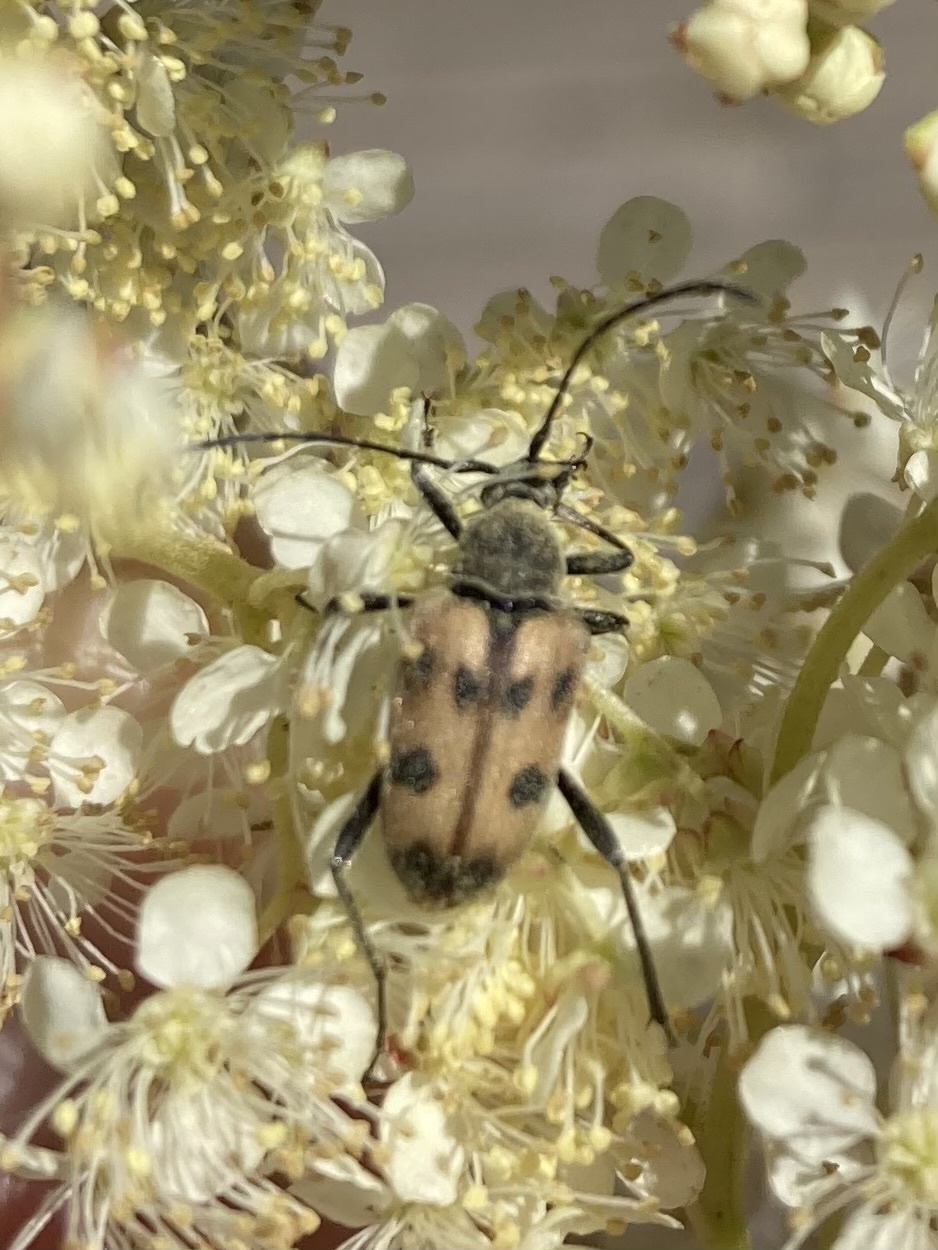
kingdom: Animalia
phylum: Arthropoda
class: Insecta
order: Coleoptera
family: Cerambycidae
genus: Pachytodes
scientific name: Pachytodes cerambyciformis
